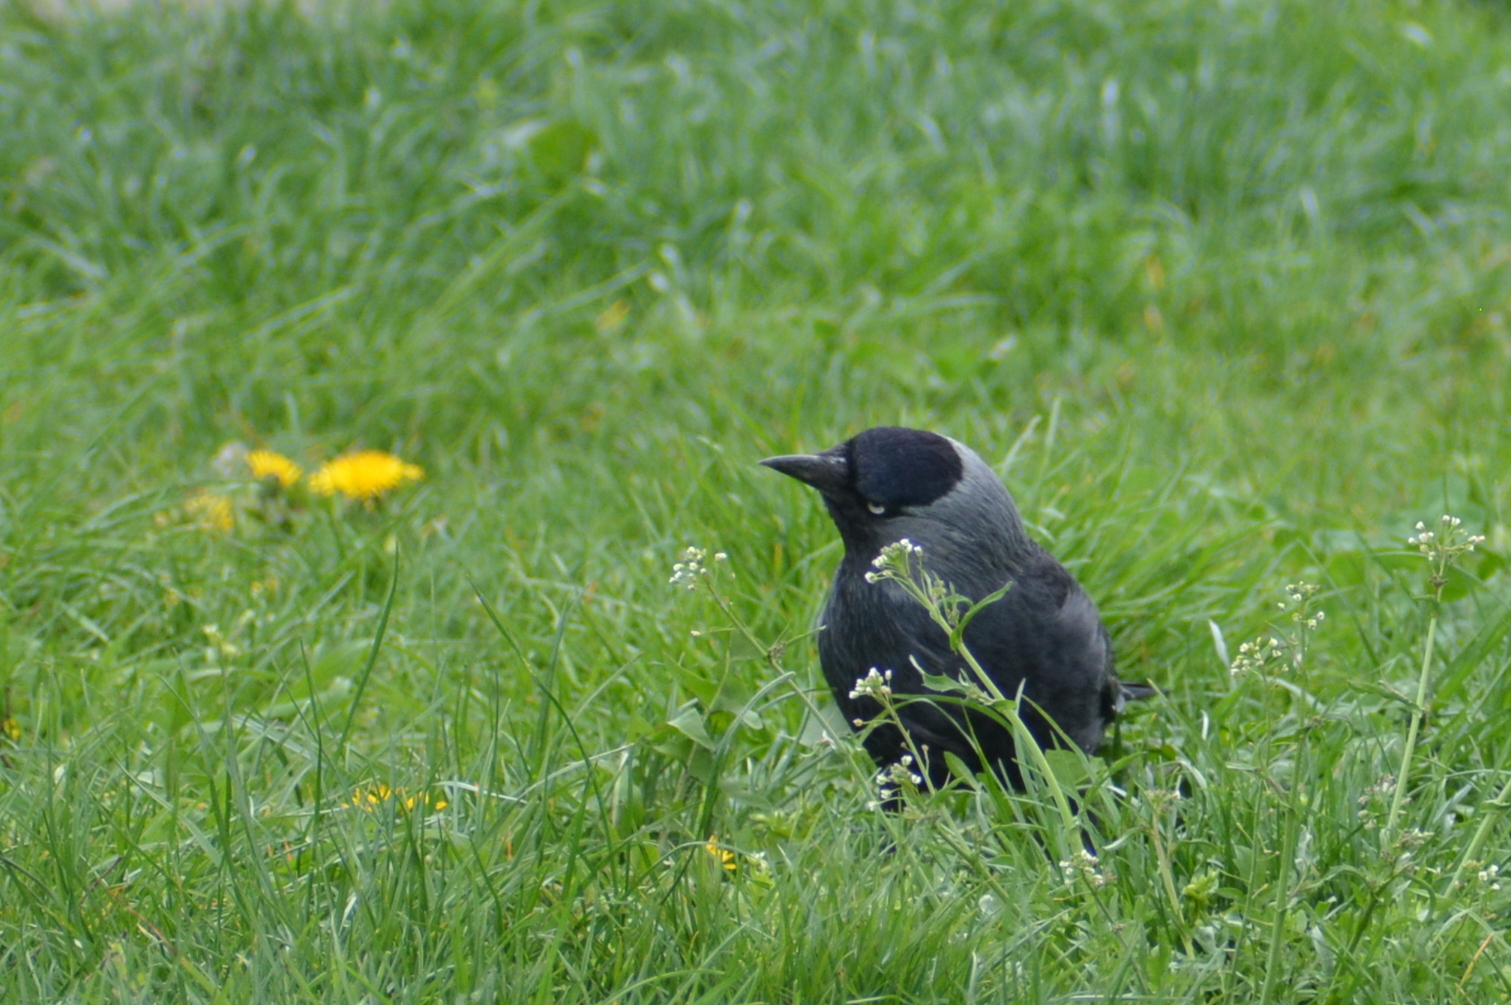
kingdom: Animalia
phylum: Chordata
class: Aves
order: Passeriformes
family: Corvidae
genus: Coloeus
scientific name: Coloeus monedula
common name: Western jackdaw
